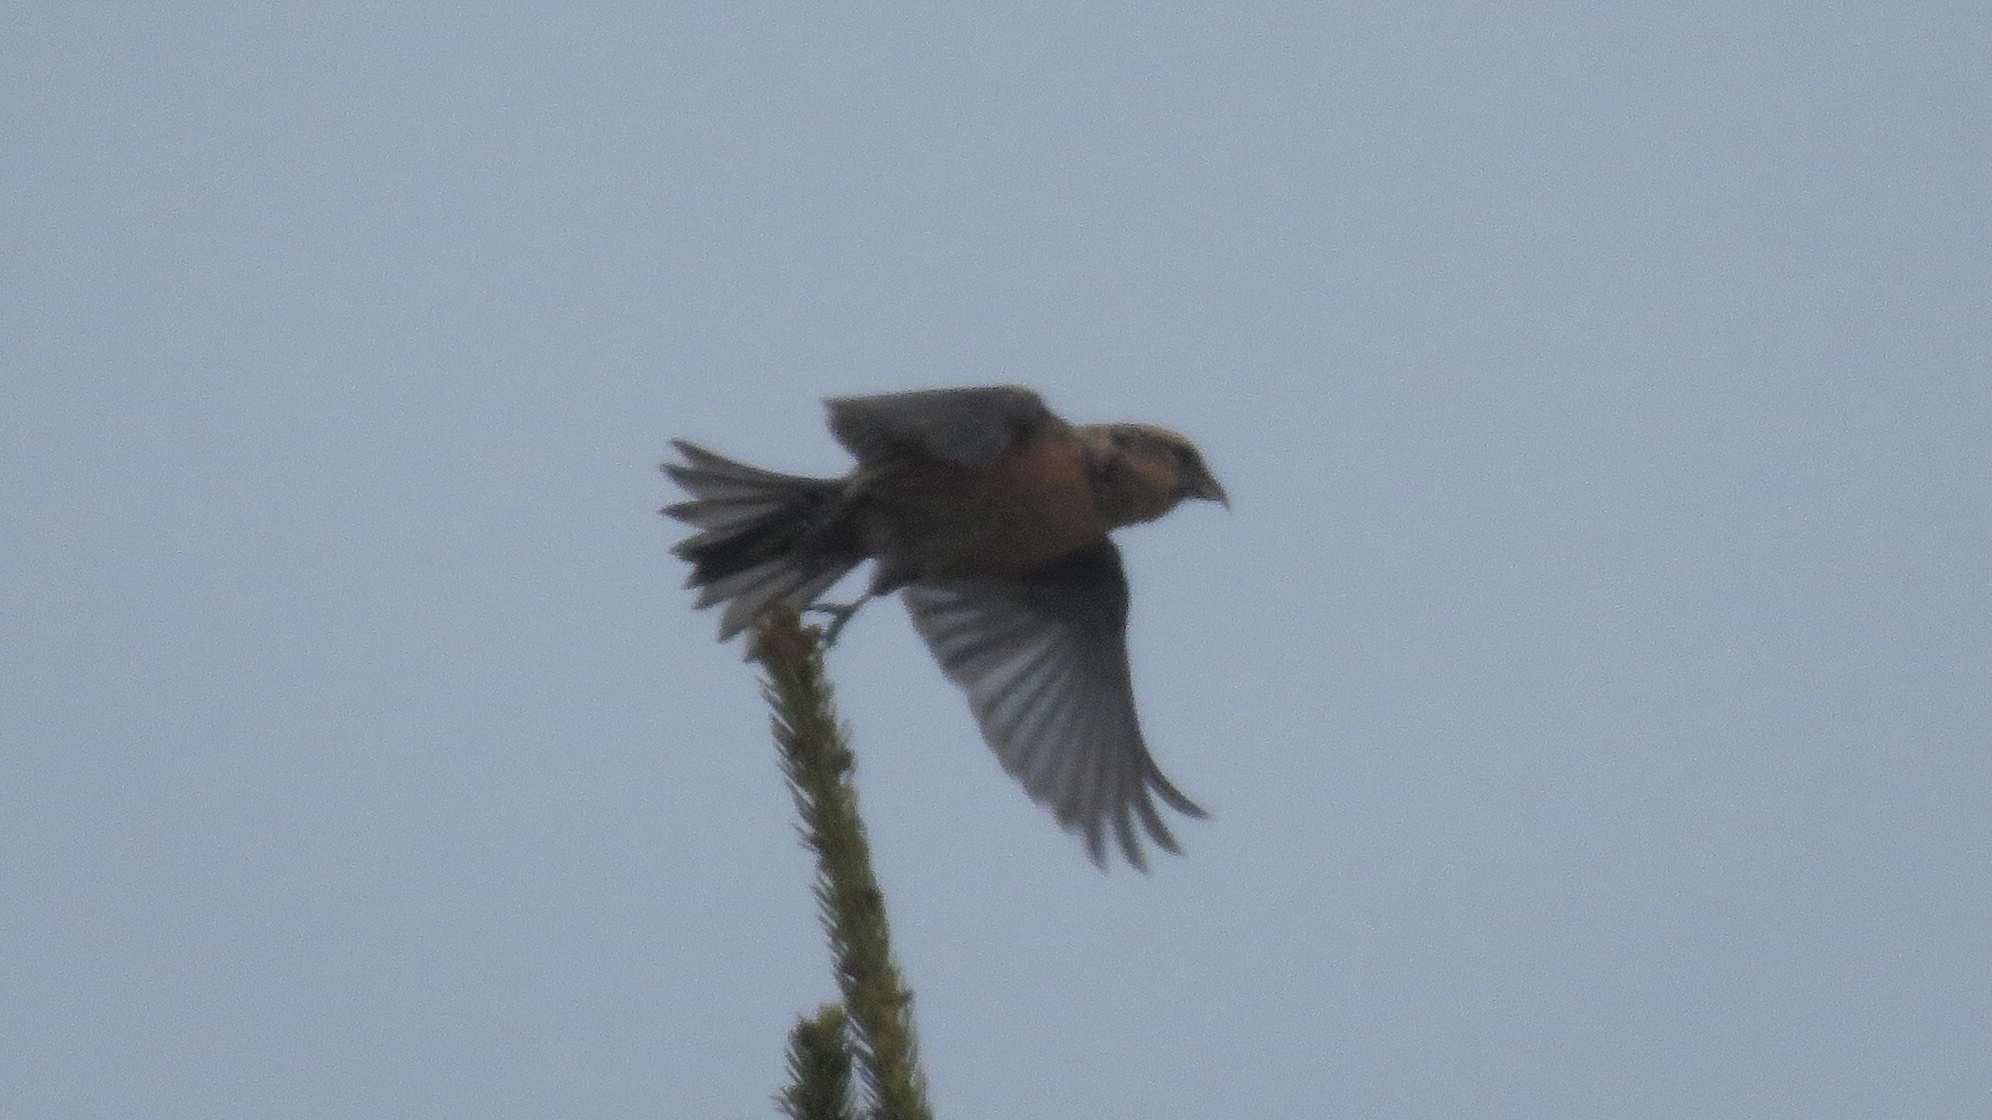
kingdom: Animalia
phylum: Chordata
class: Aves
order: Passeriformes
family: Fringillidae
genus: Loxia
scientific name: Loxia leucoptera
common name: Two-barred crossbill
